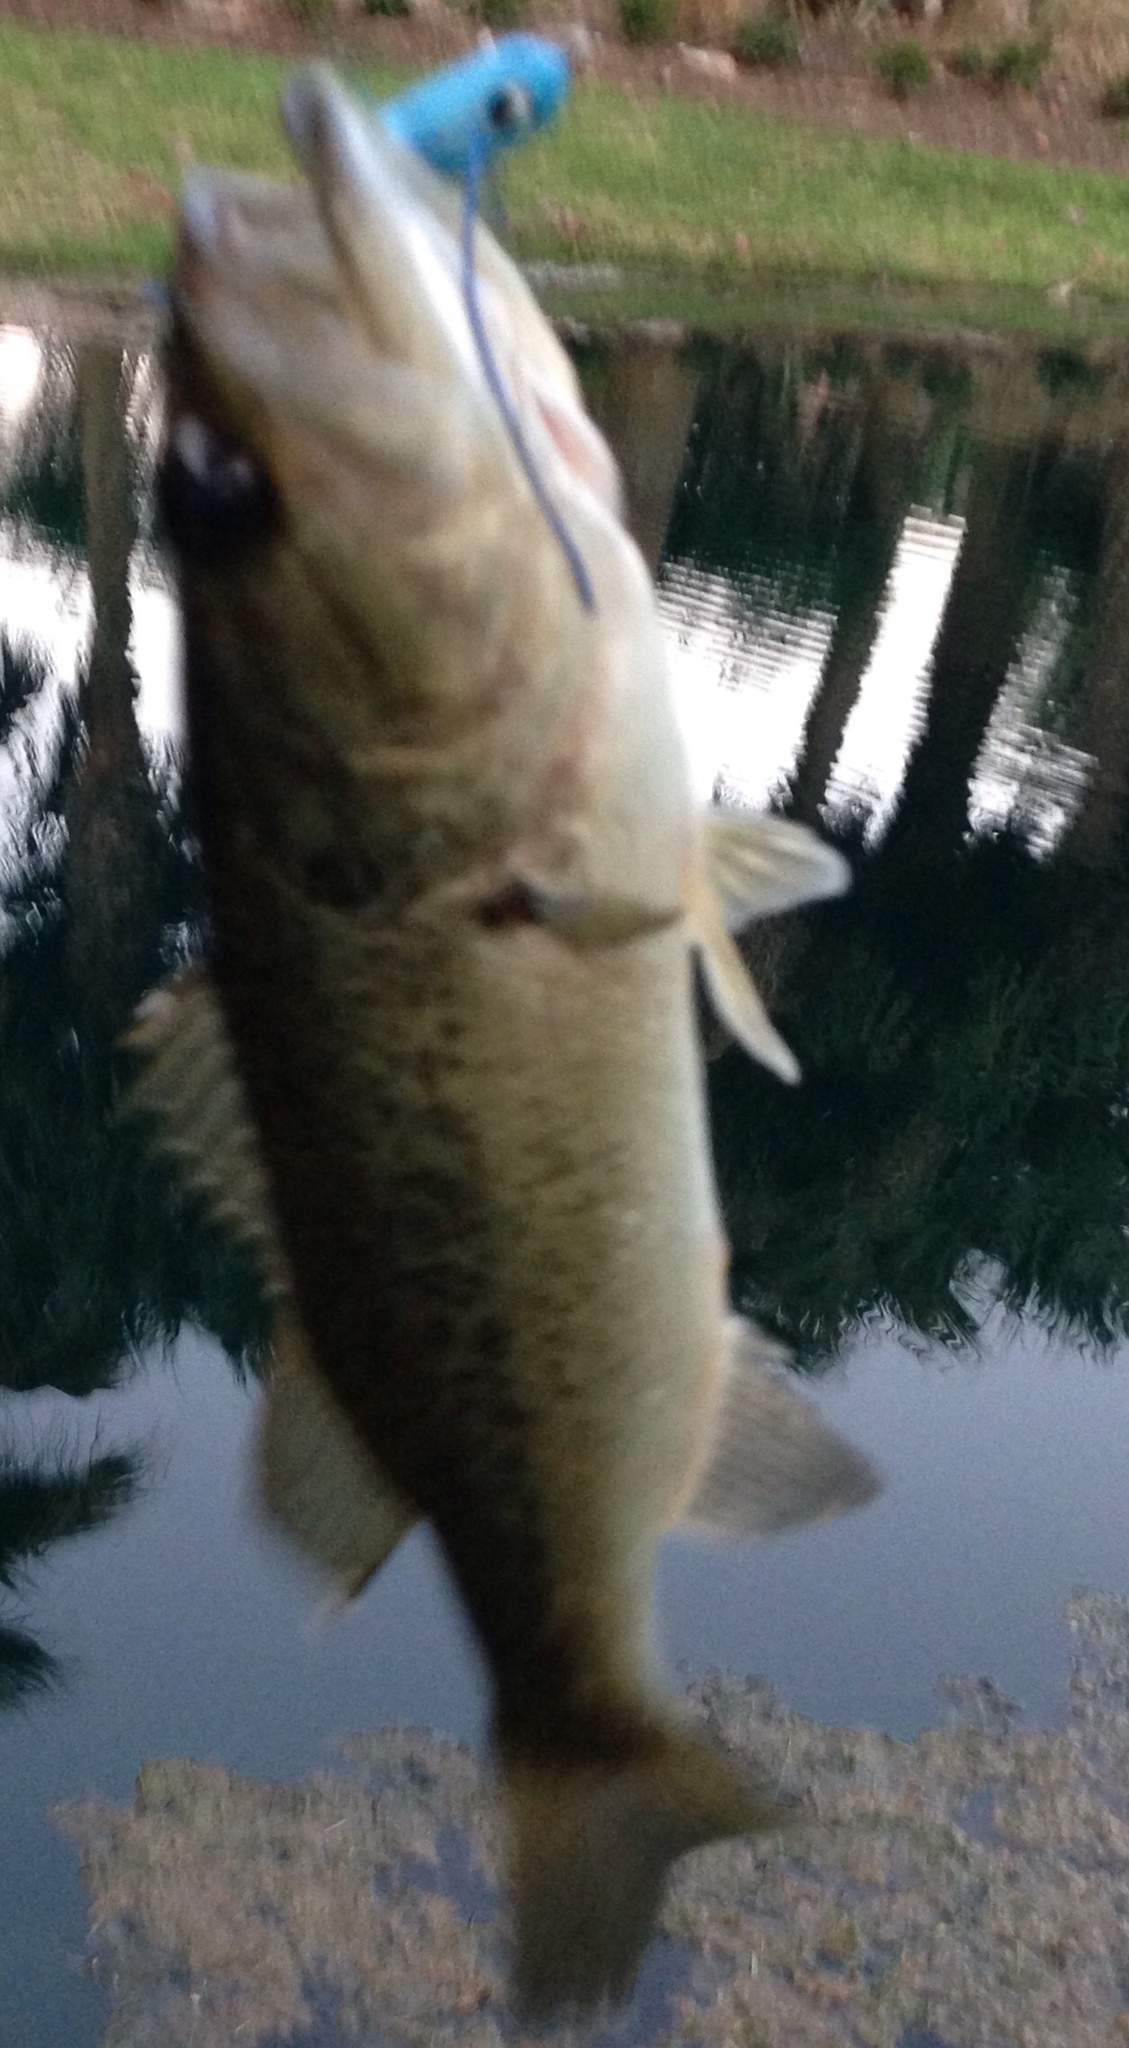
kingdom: Animalia
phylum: Chordata
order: Perciformes
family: Centrarchidae
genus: Micropterus
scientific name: Micropterus
